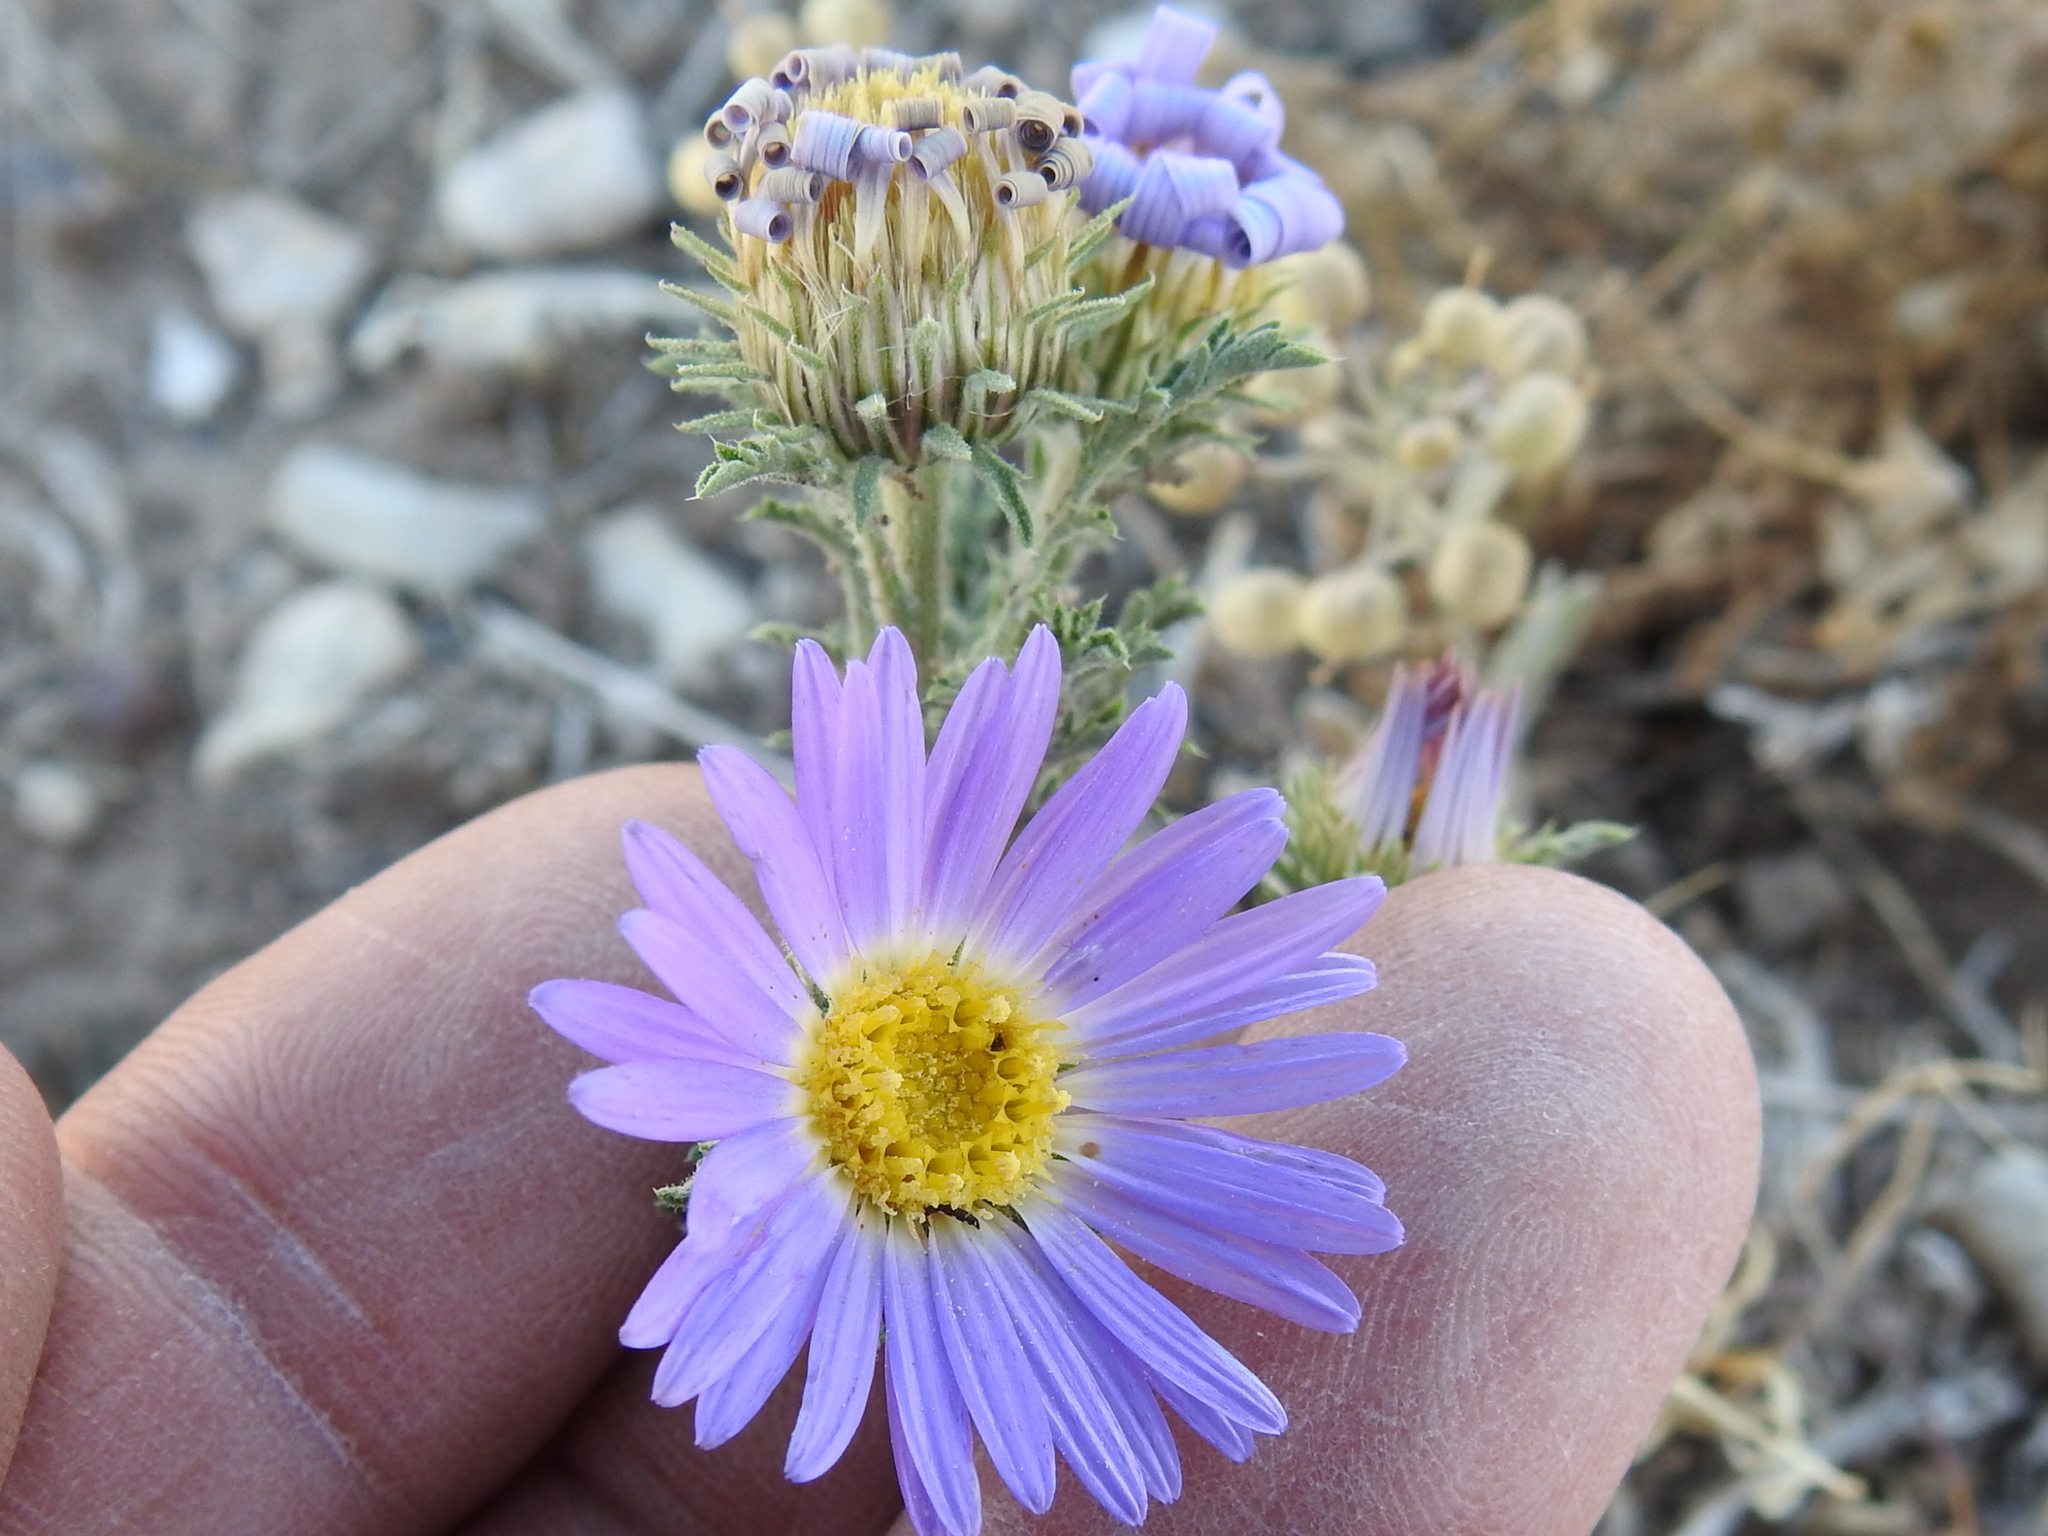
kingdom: Plantae
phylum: Tracheophyta
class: Magnoliopsida
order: Asterales
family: Asteraceae
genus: Machaeranthera
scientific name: Machaeranthera tanacetifolia
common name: Tansy-aster
